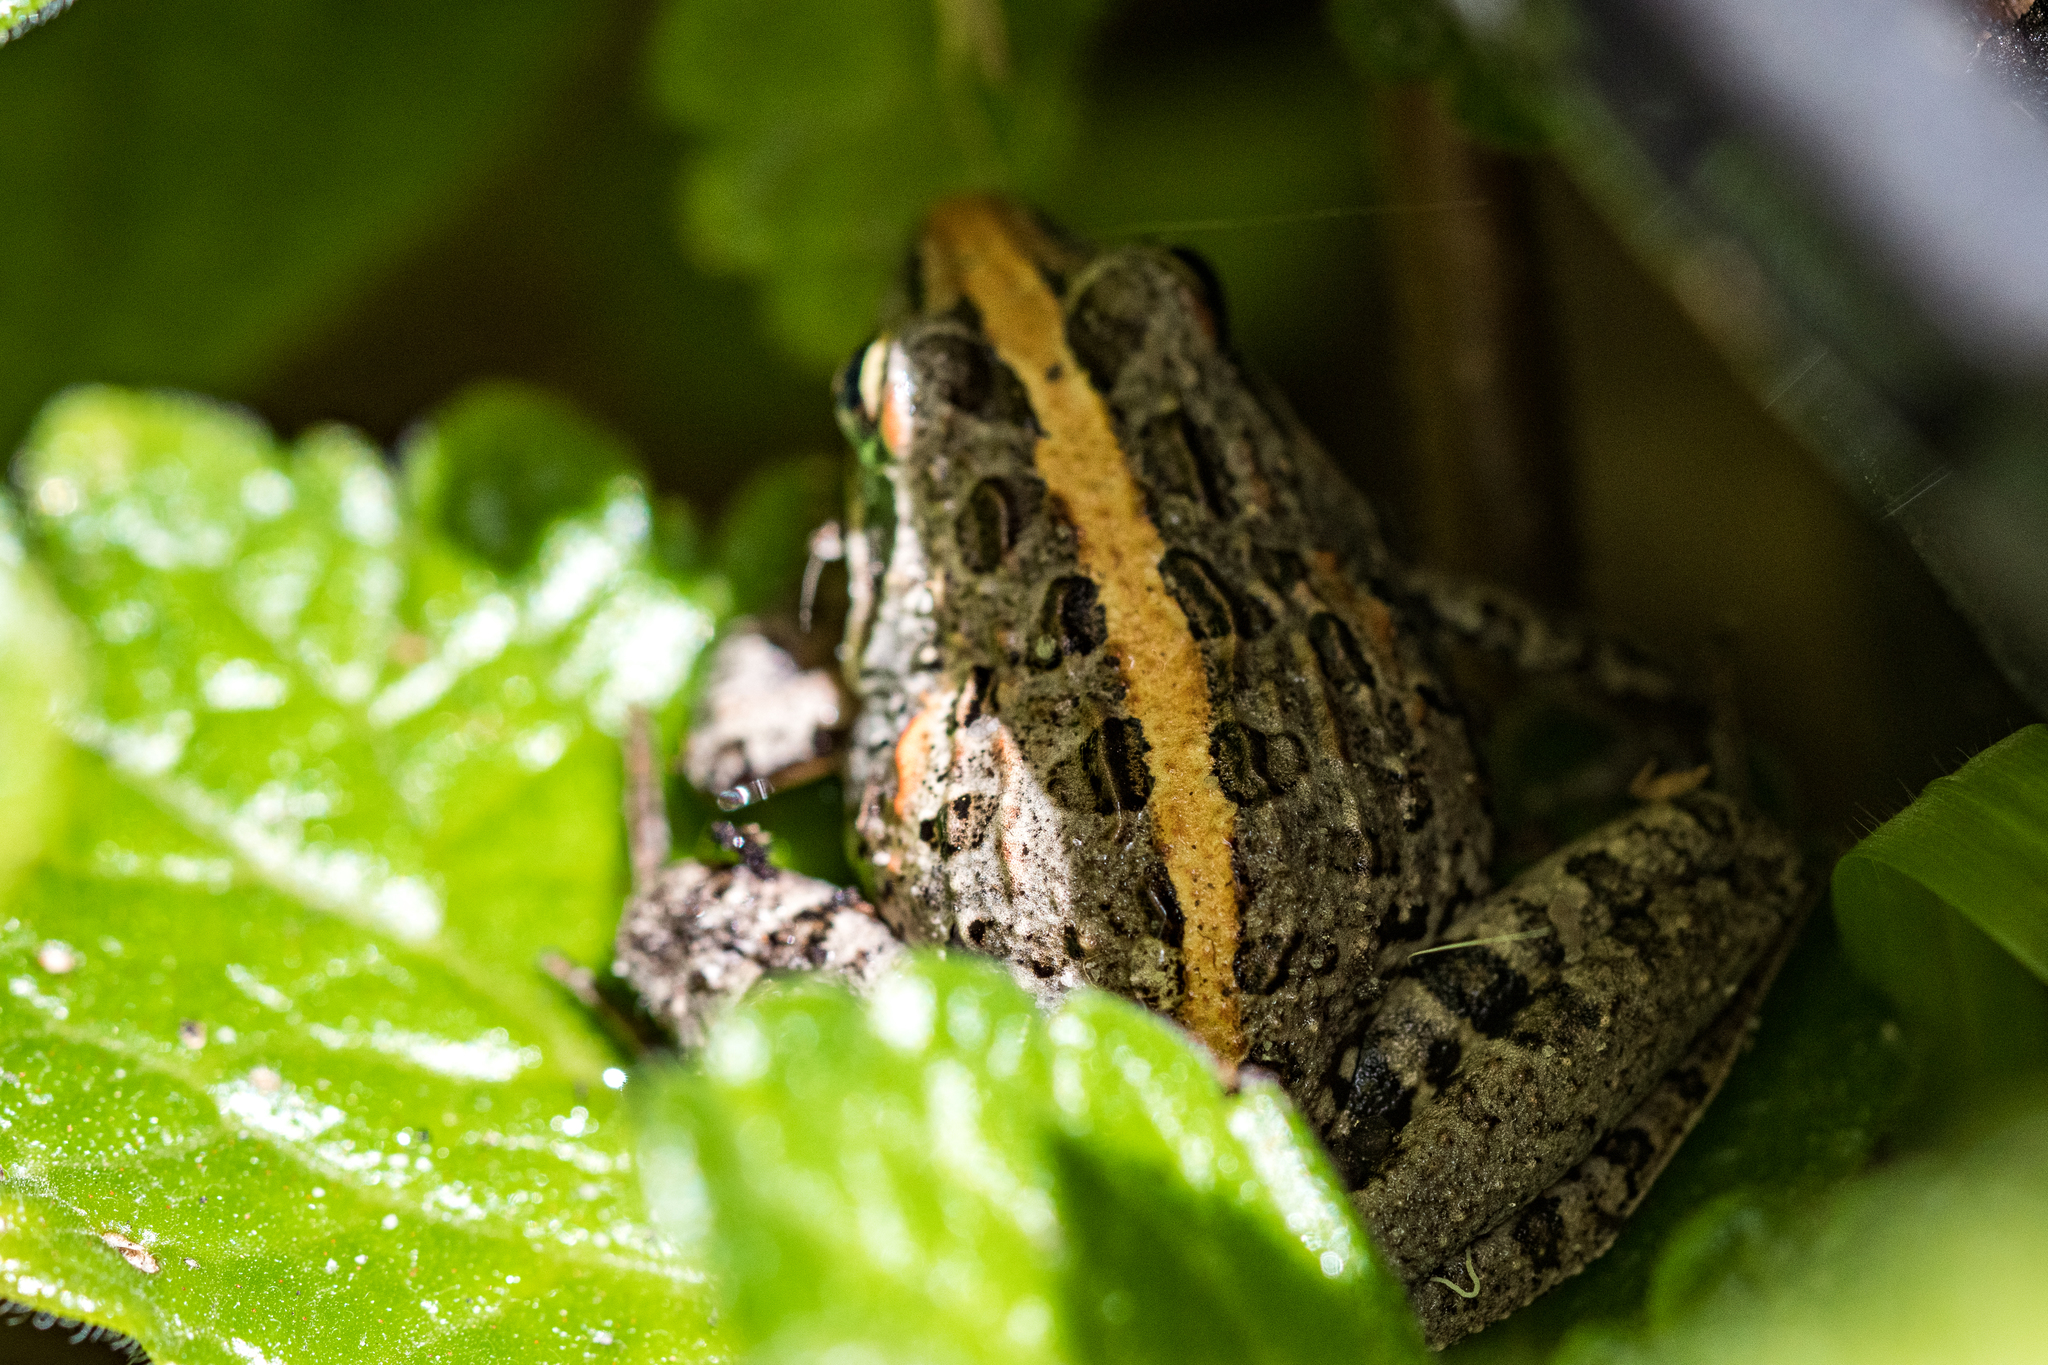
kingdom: Animalia
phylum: Chordata
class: Amphibia
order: Anura
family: Pyxicephalidae
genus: Strongylopus
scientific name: Strongylopus grayii
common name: Gray's stream frog
